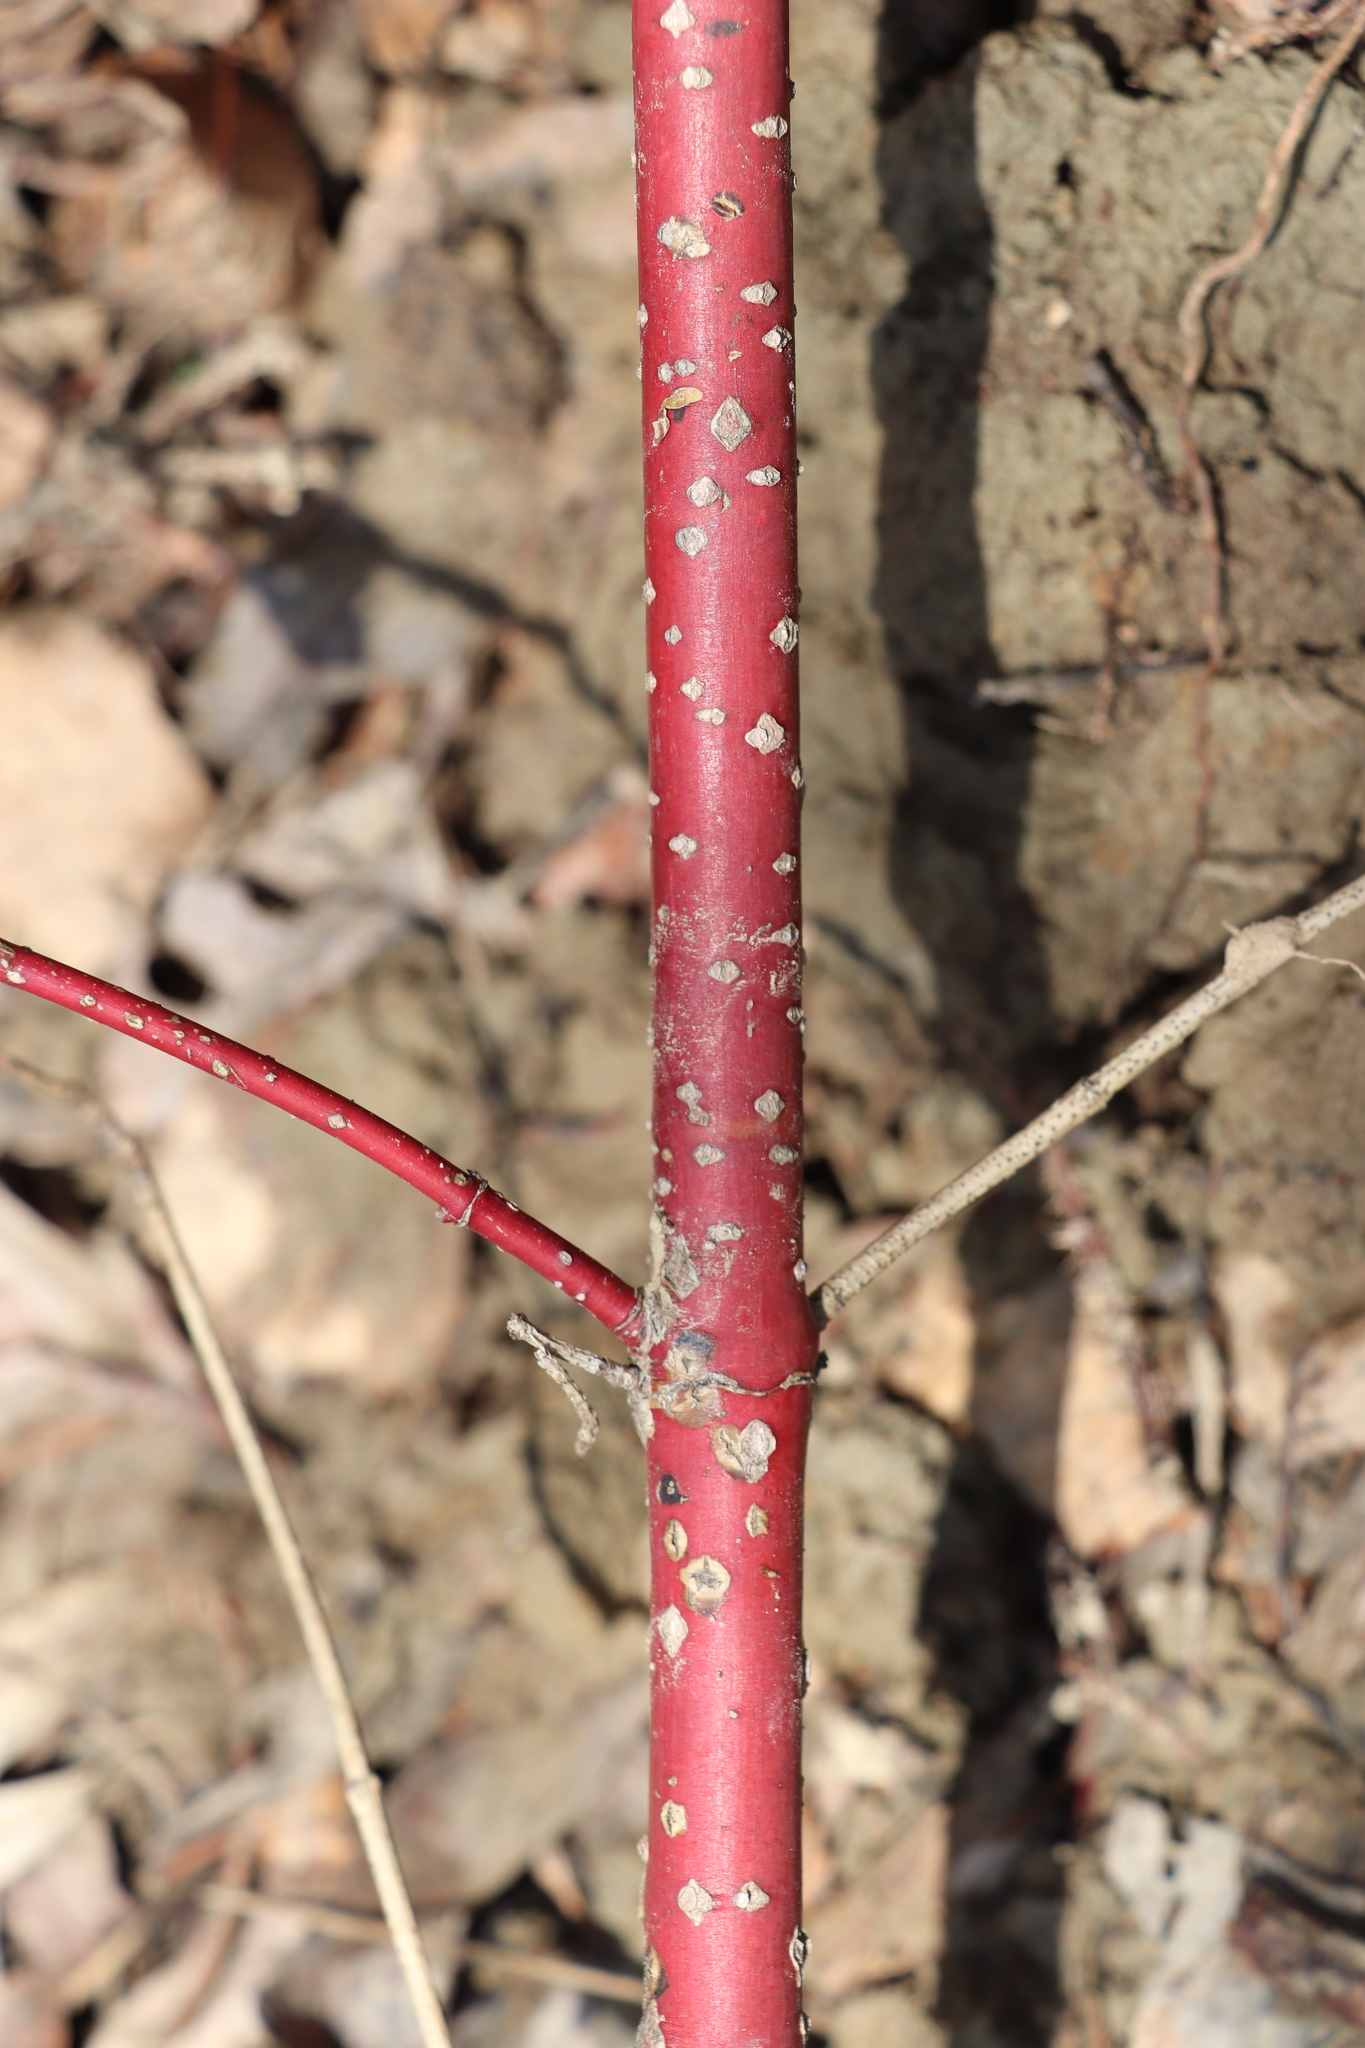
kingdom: Plantae
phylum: Tracheophyta
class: Magnoliopsida
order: Cornales
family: Cornaceae
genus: Cornus
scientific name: Cornus alba
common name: White dogwood
